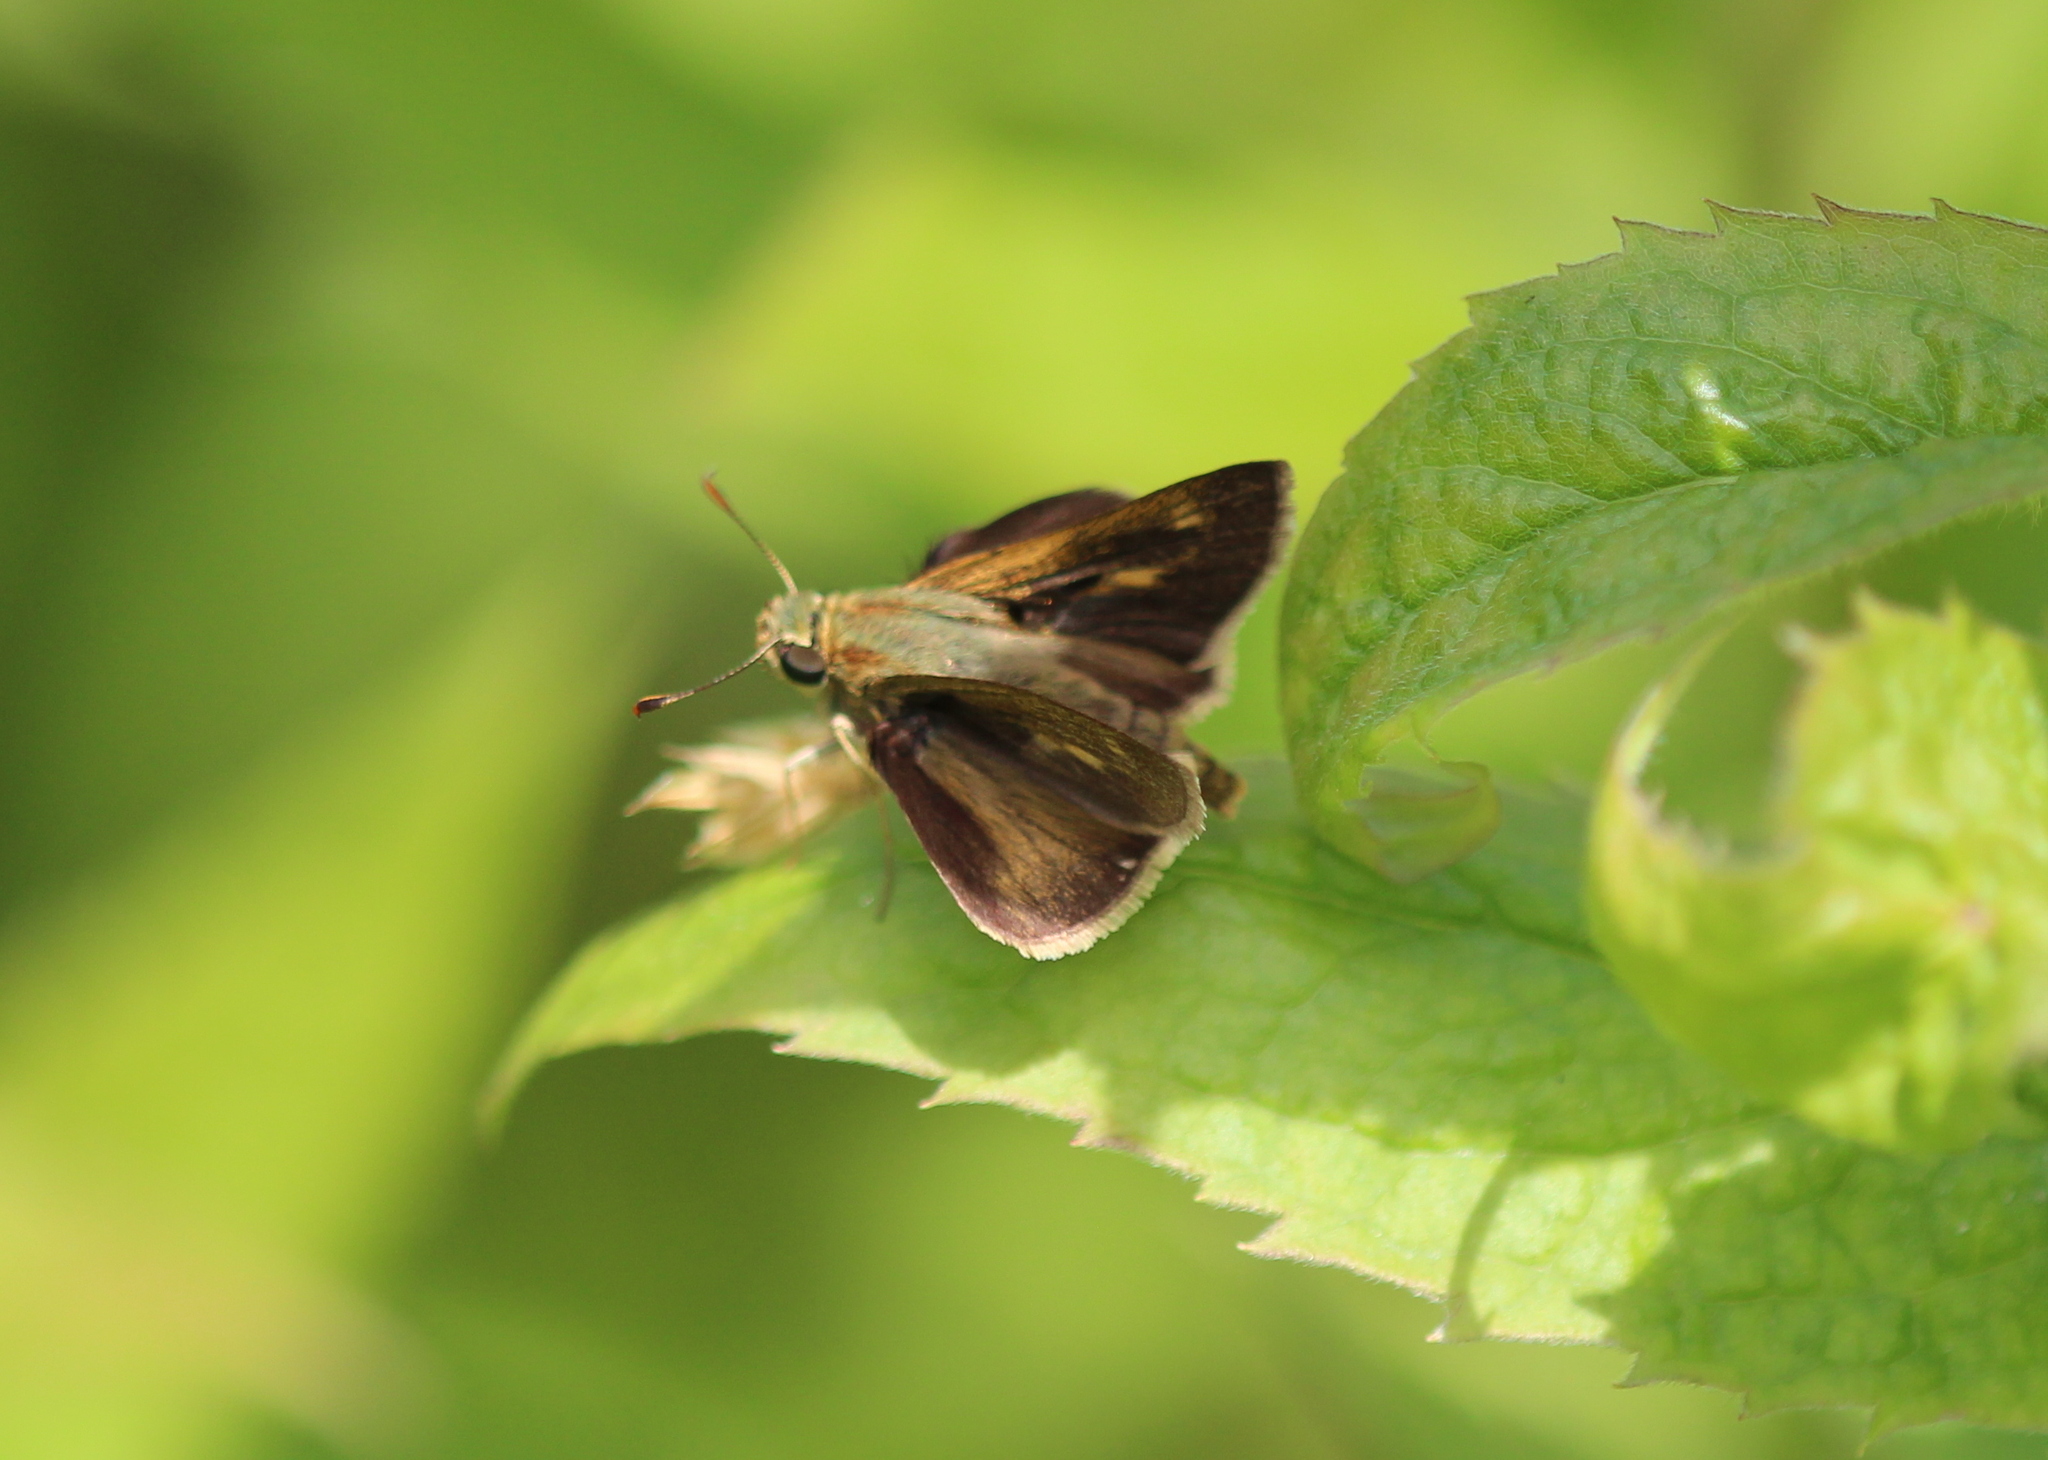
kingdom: Animalia
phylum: Arthropoda
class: Insecta
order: Lepidoptera
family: Hesperiidae
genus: Polites
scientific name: Polites egeremet
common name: Northern broken-dash
